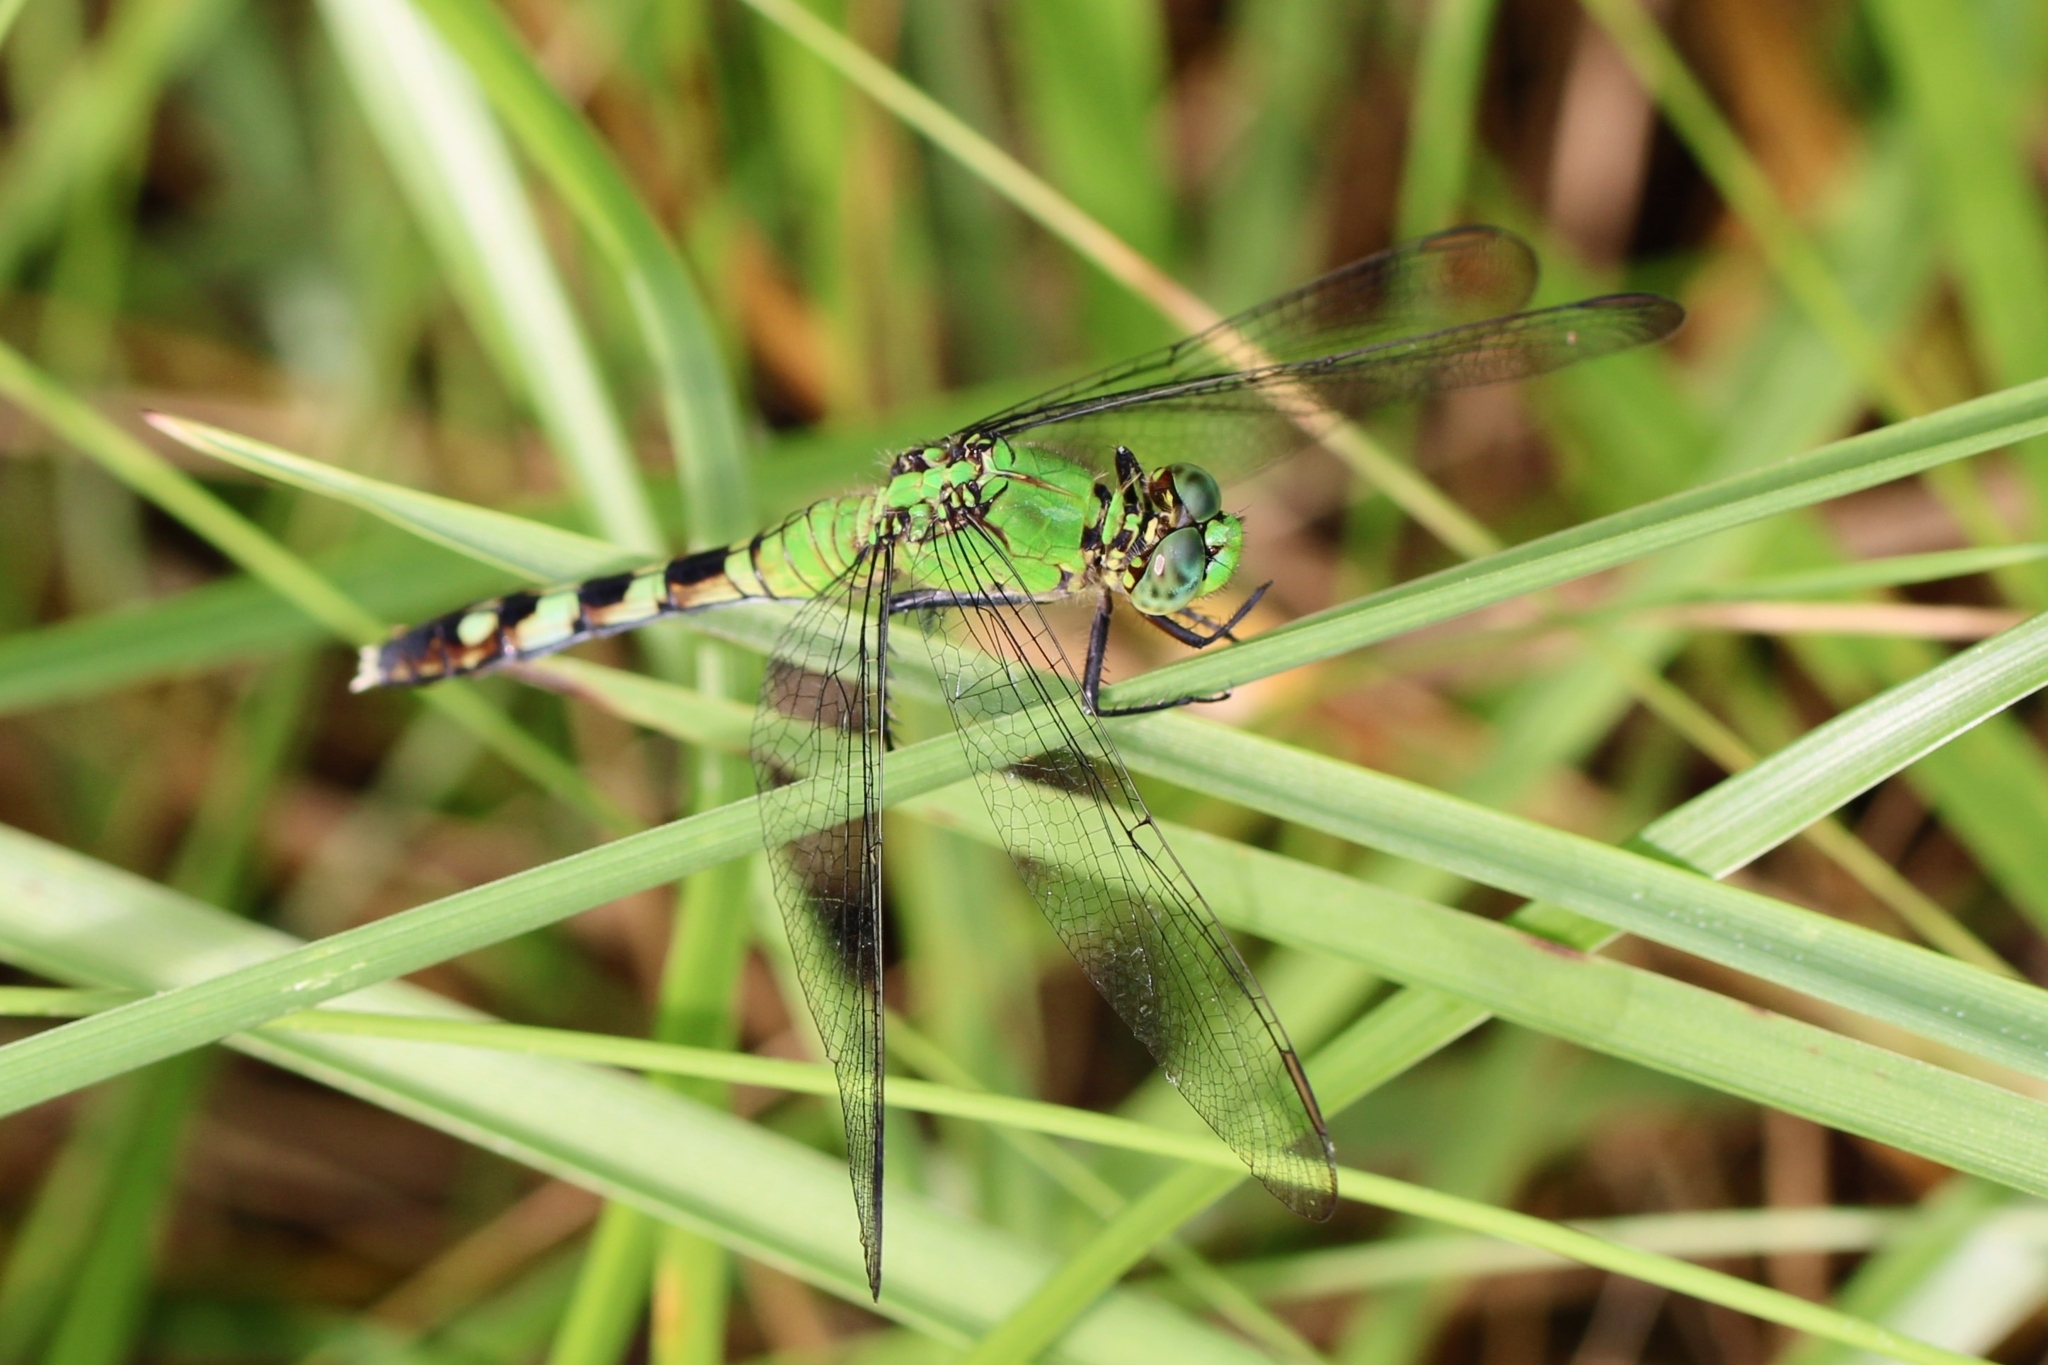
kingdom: Animalia
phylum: Arthropoda
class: Insecta
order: Odonata
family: Libellulidae
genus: Erythemis
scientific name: Erythemis simplicicollis
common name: Eastern pondhawk
